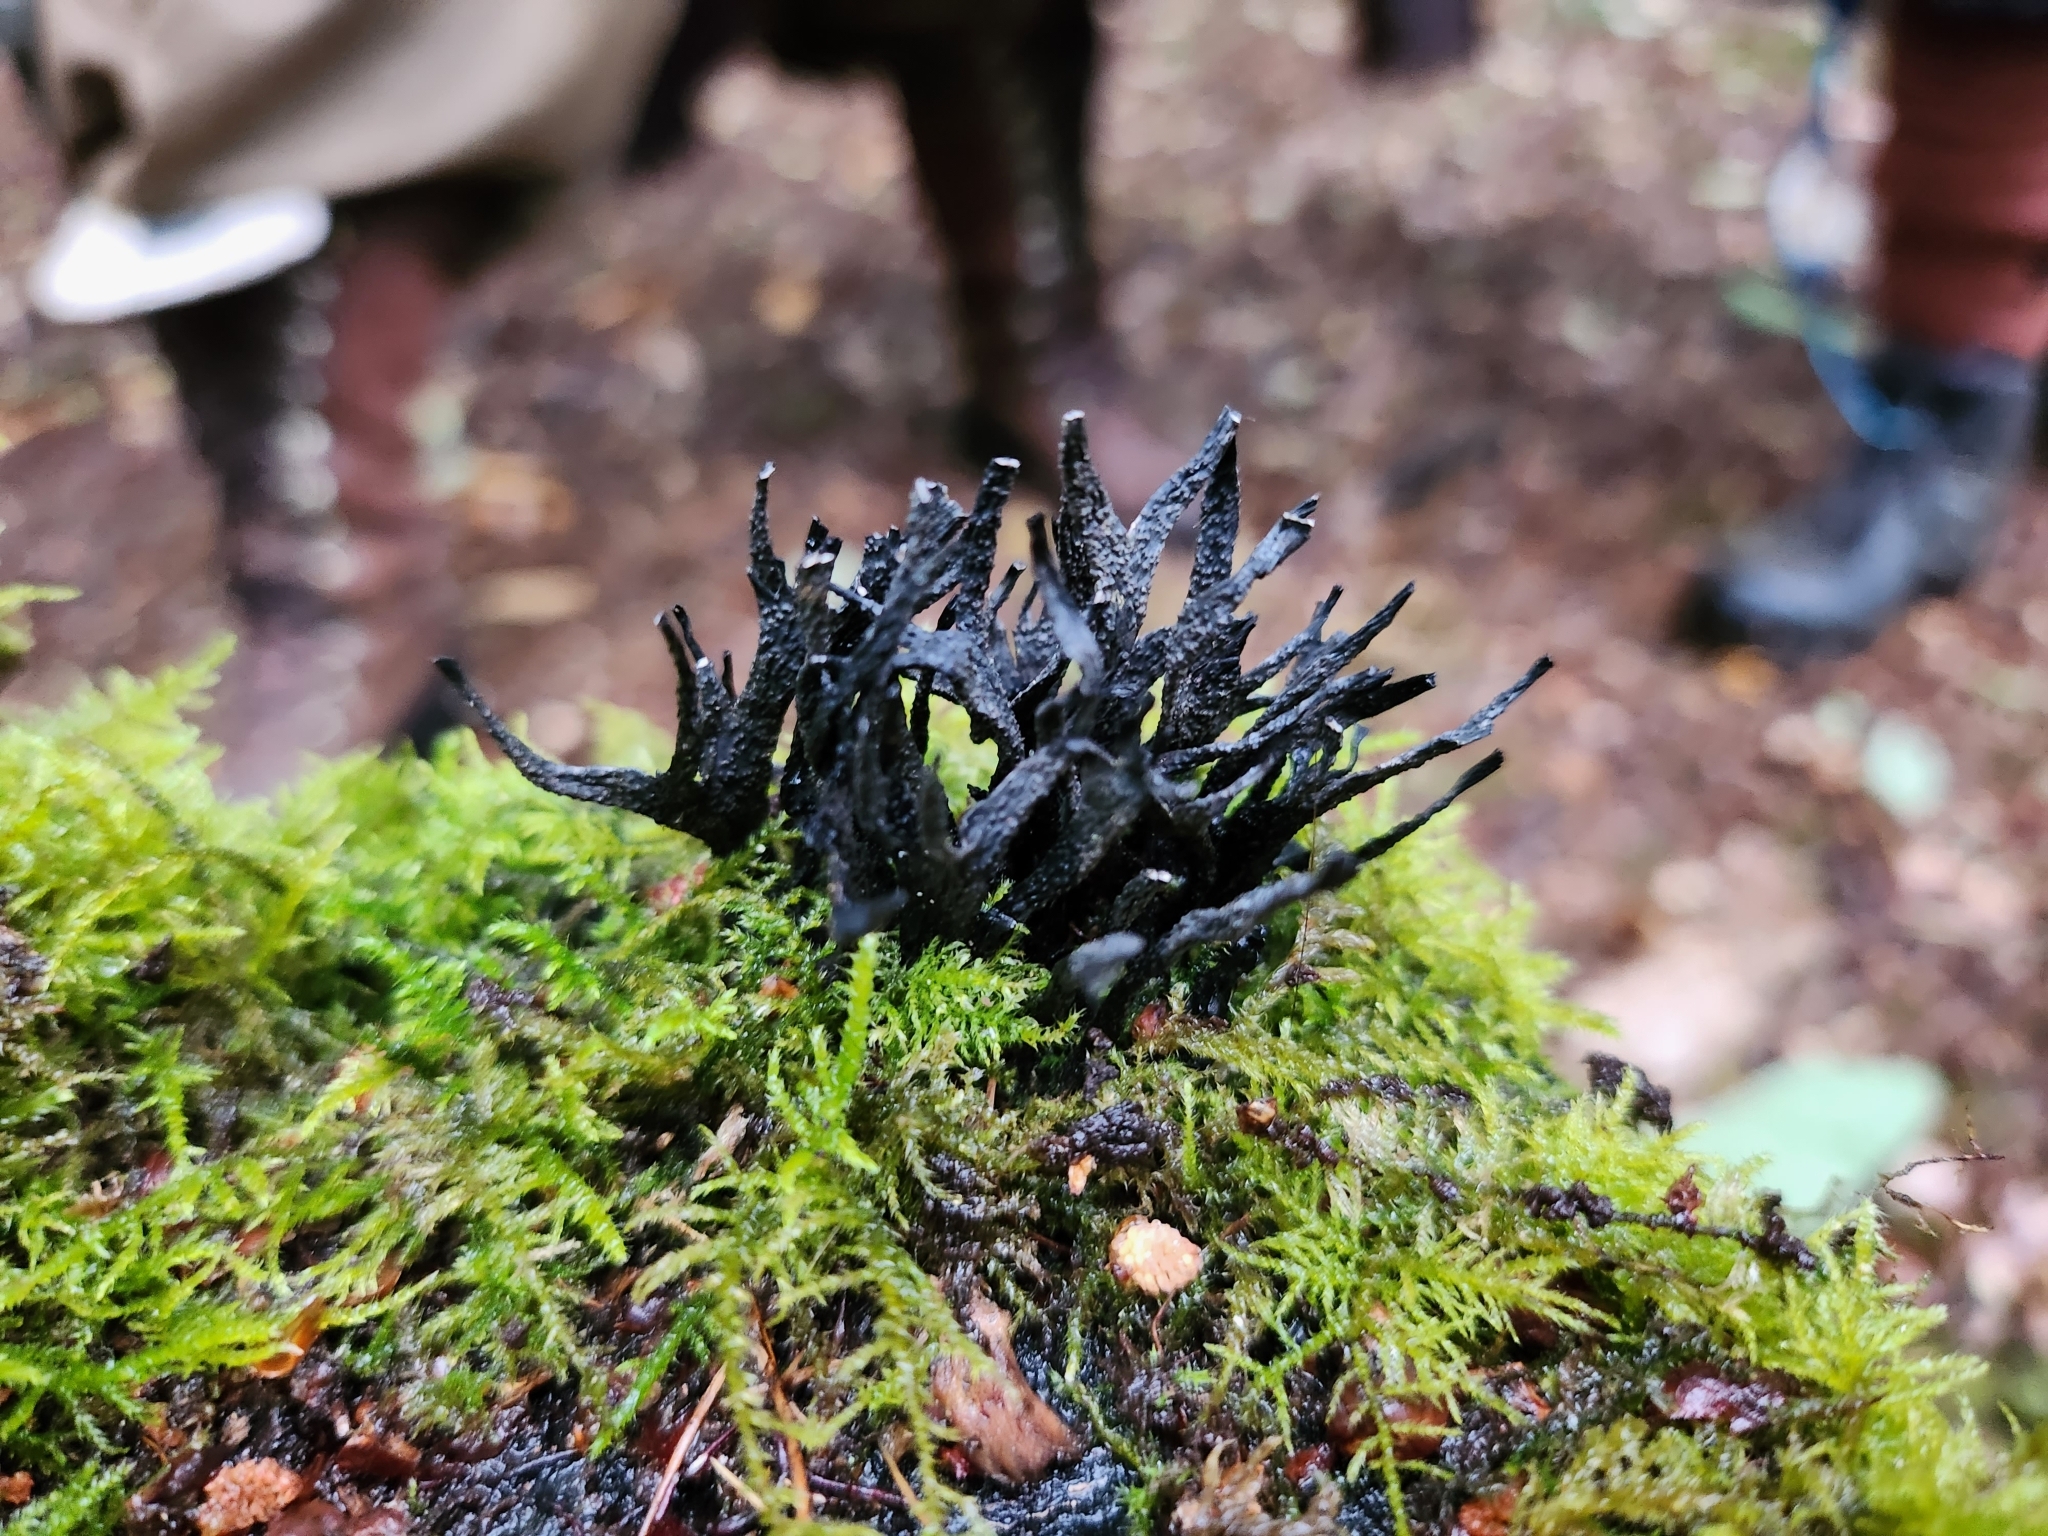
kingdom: Fungi
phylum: Ascomycota
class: Sordariomycetes
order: Xylariales
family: Xylariaceae
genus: Xylaria
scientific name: Xylaria hypoxylon
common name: Candle-snuff fungus
